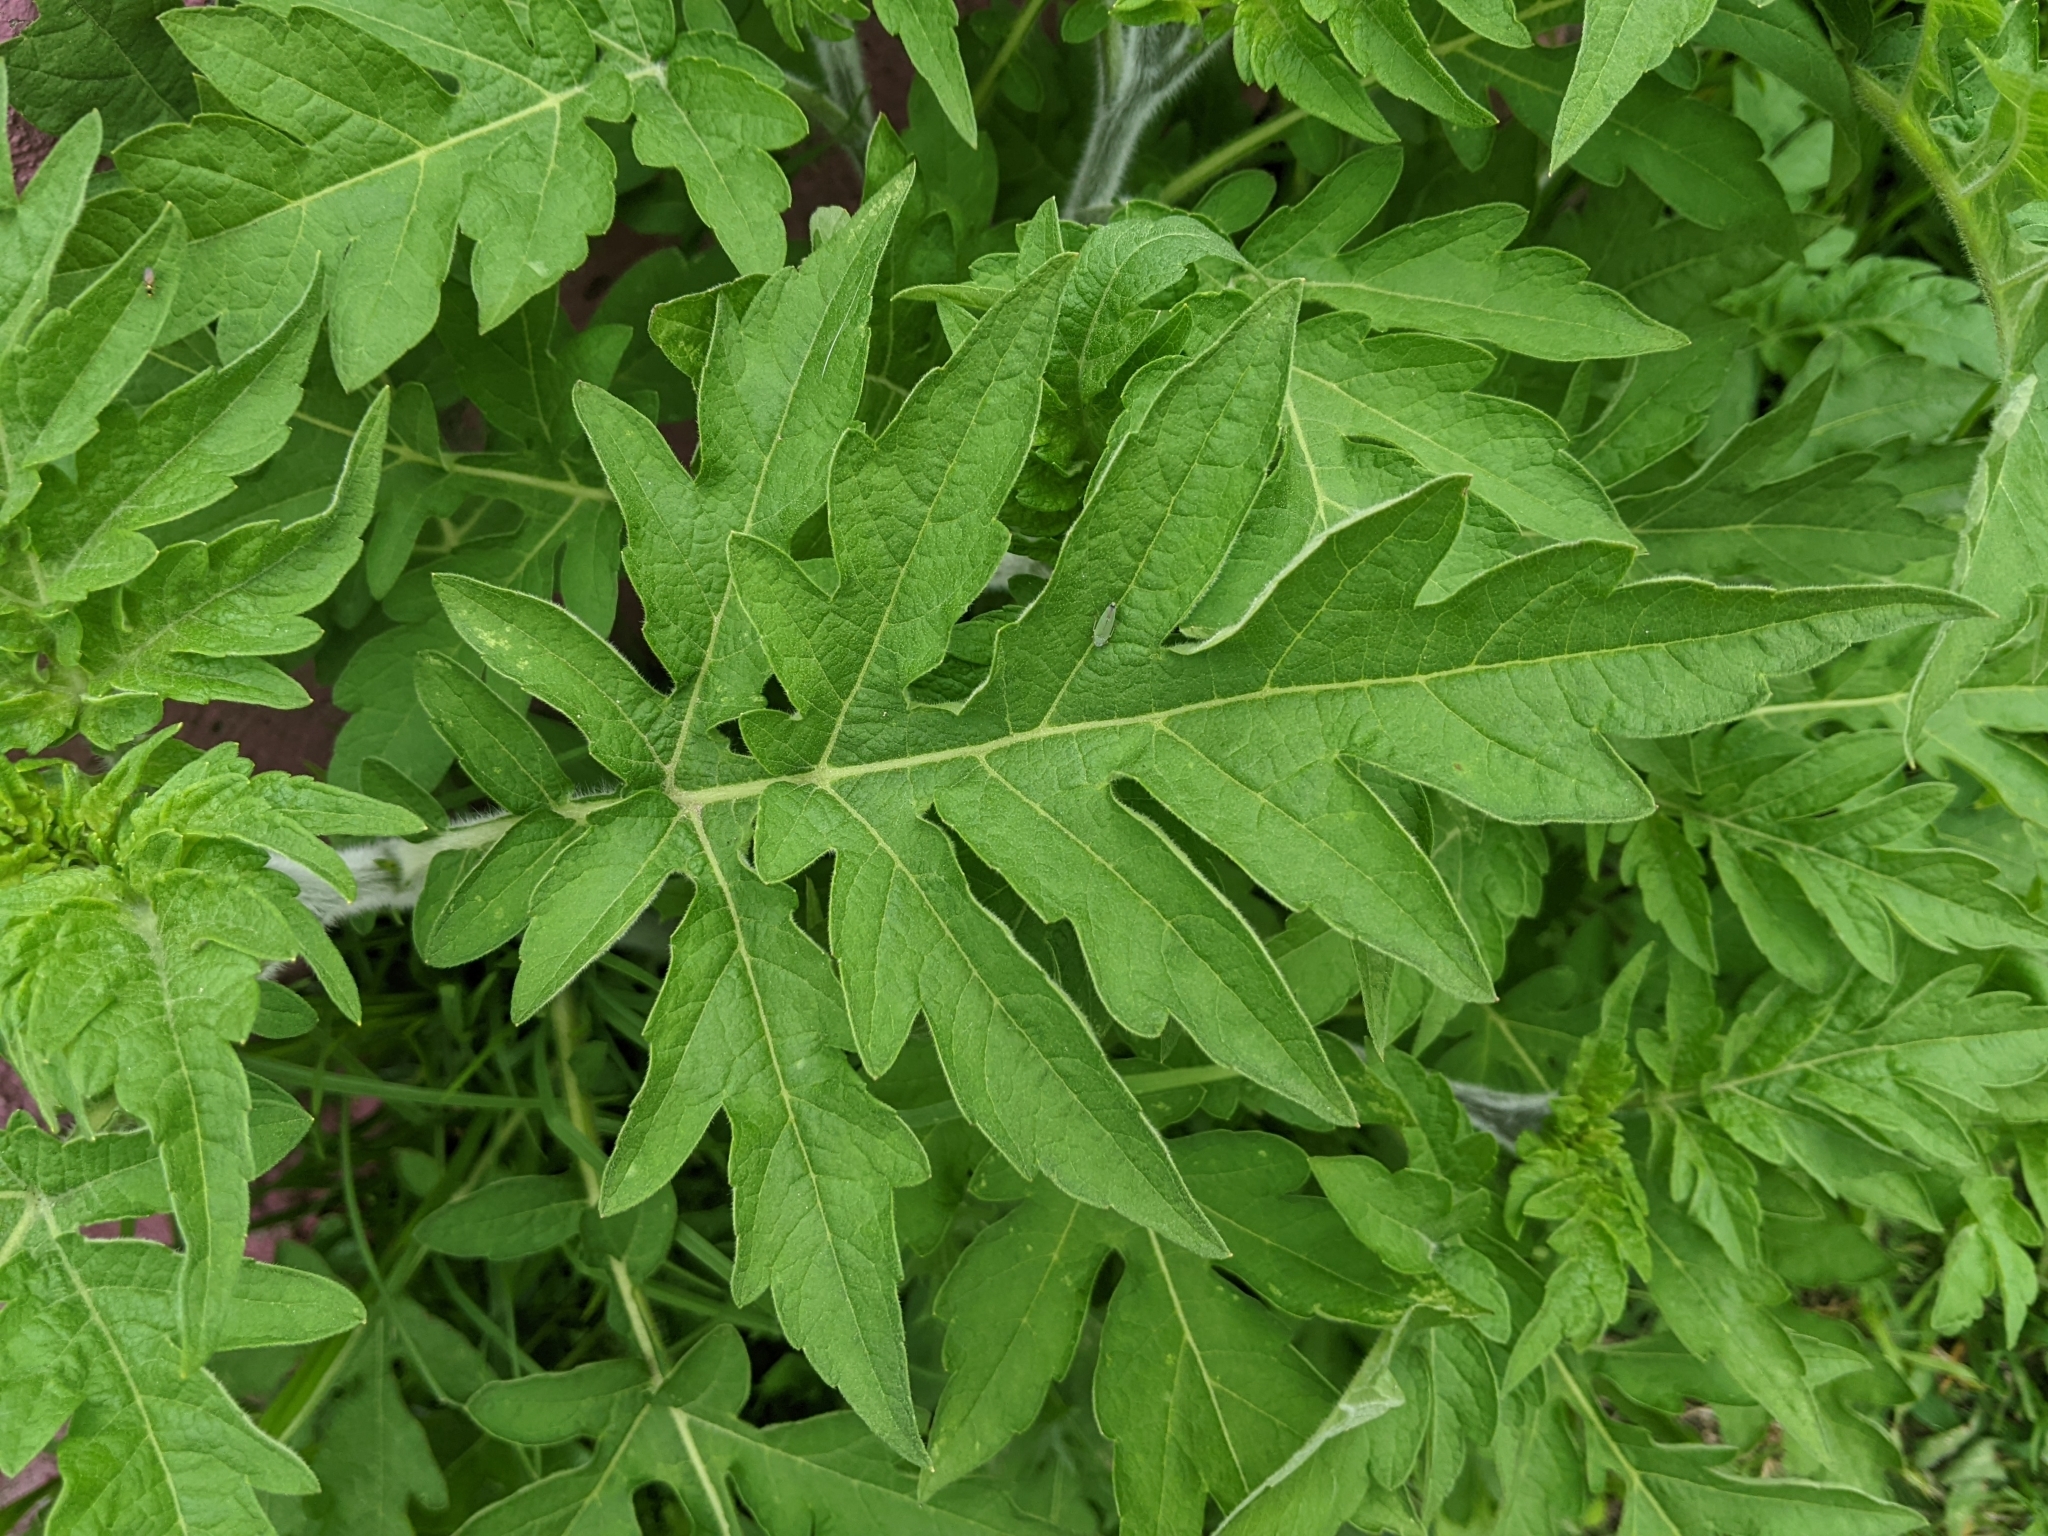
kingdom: Plantae
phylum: Tracheophyta
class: Magnoliopsida
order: Asterales
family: Asteraceae
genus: Ambrosia
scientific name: Ambrosia arborescens
